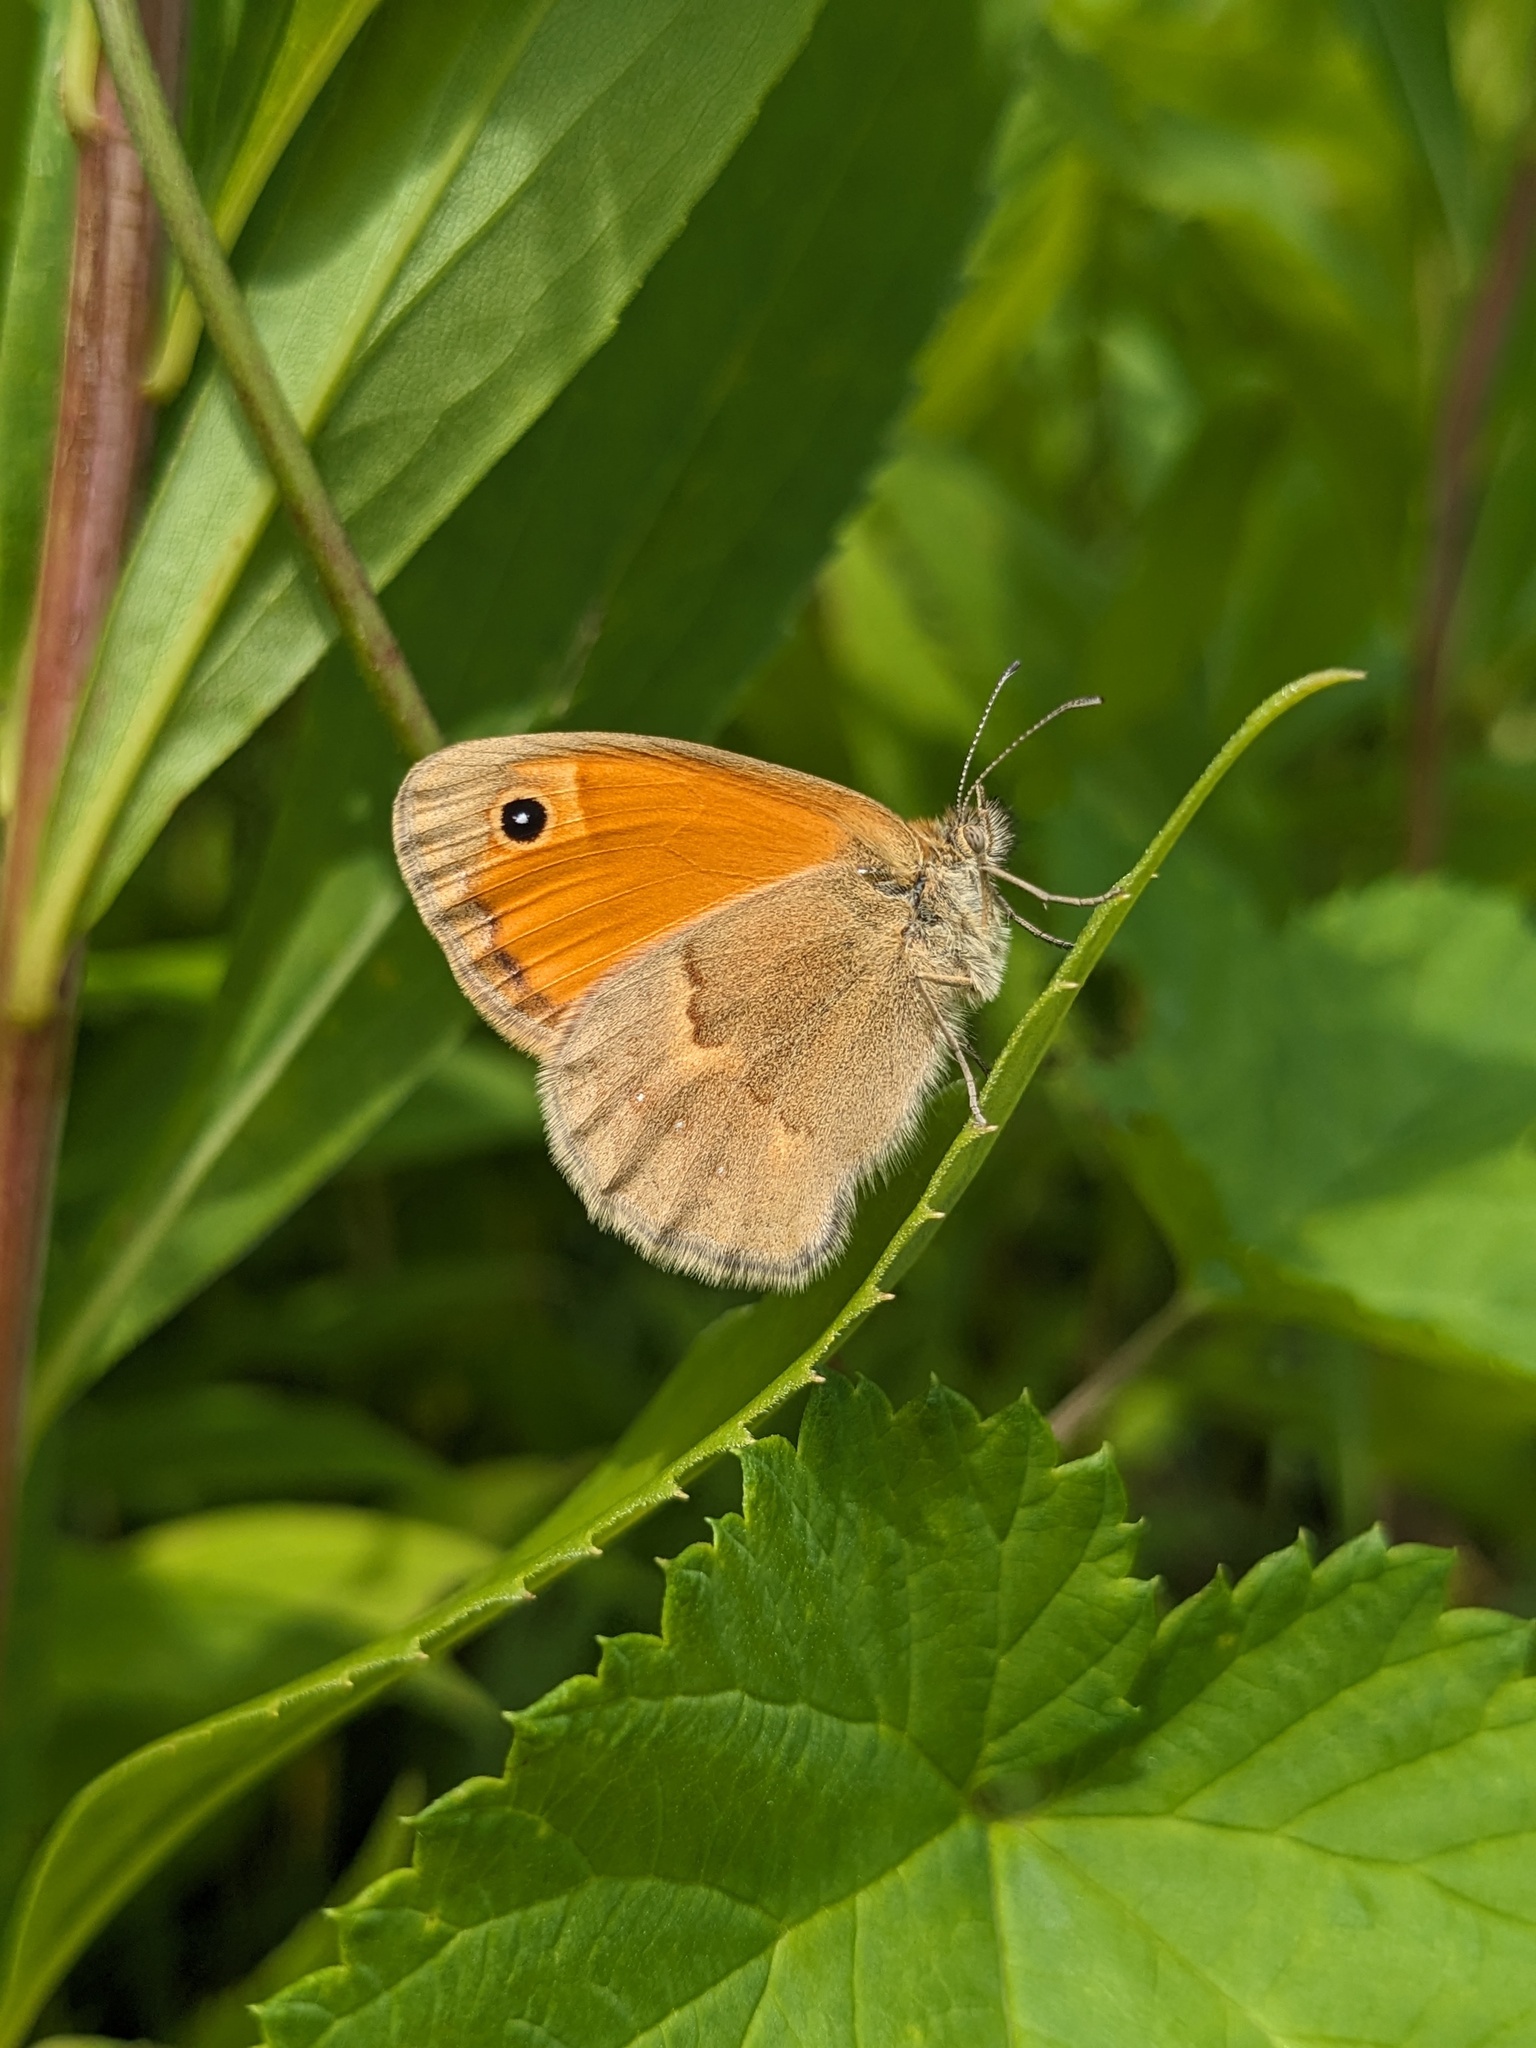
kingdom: Animalia
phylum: Arthropoda
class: Insecta
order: Lepidoptera
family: Nymphalidae
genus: Coenonympha
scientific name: Coenonympha pamphilus
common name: Small heath
